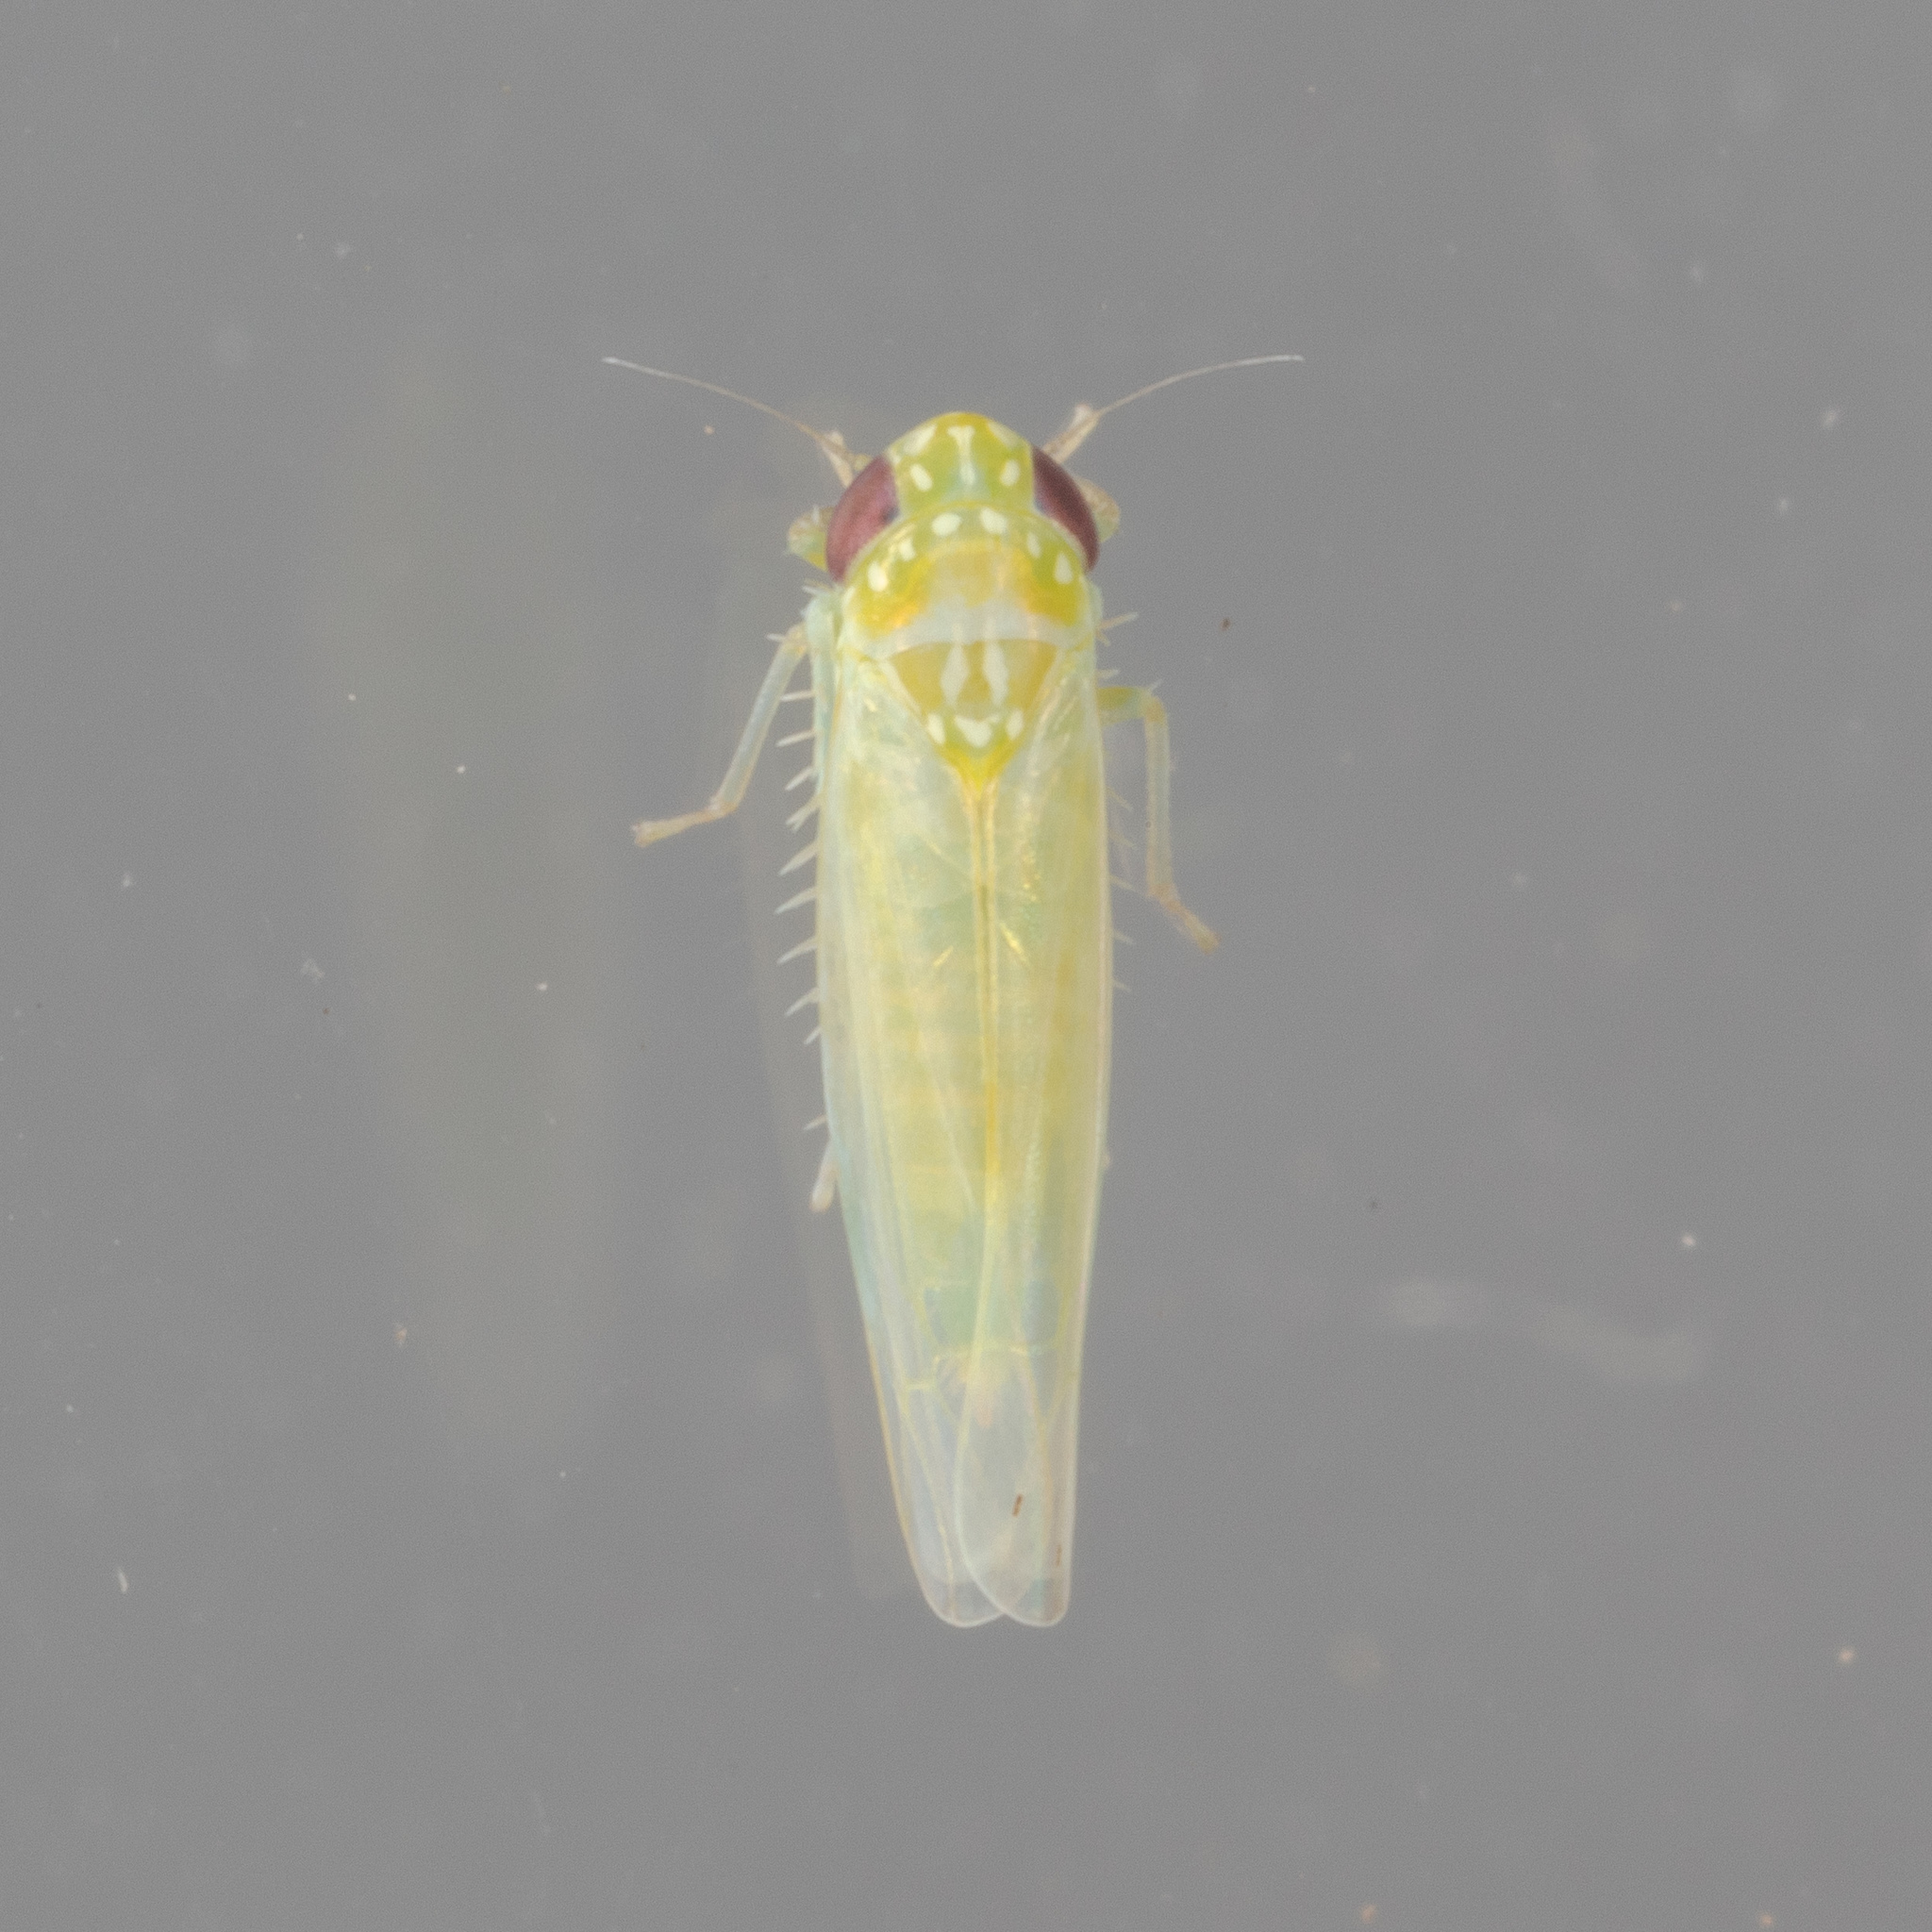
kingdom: Animalia
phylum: Arthropoda
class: Insecta
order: Hemiptera
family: Cicadellidae
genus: Empoasca
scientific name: Empoasca fabae
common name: Potato leafhopper
